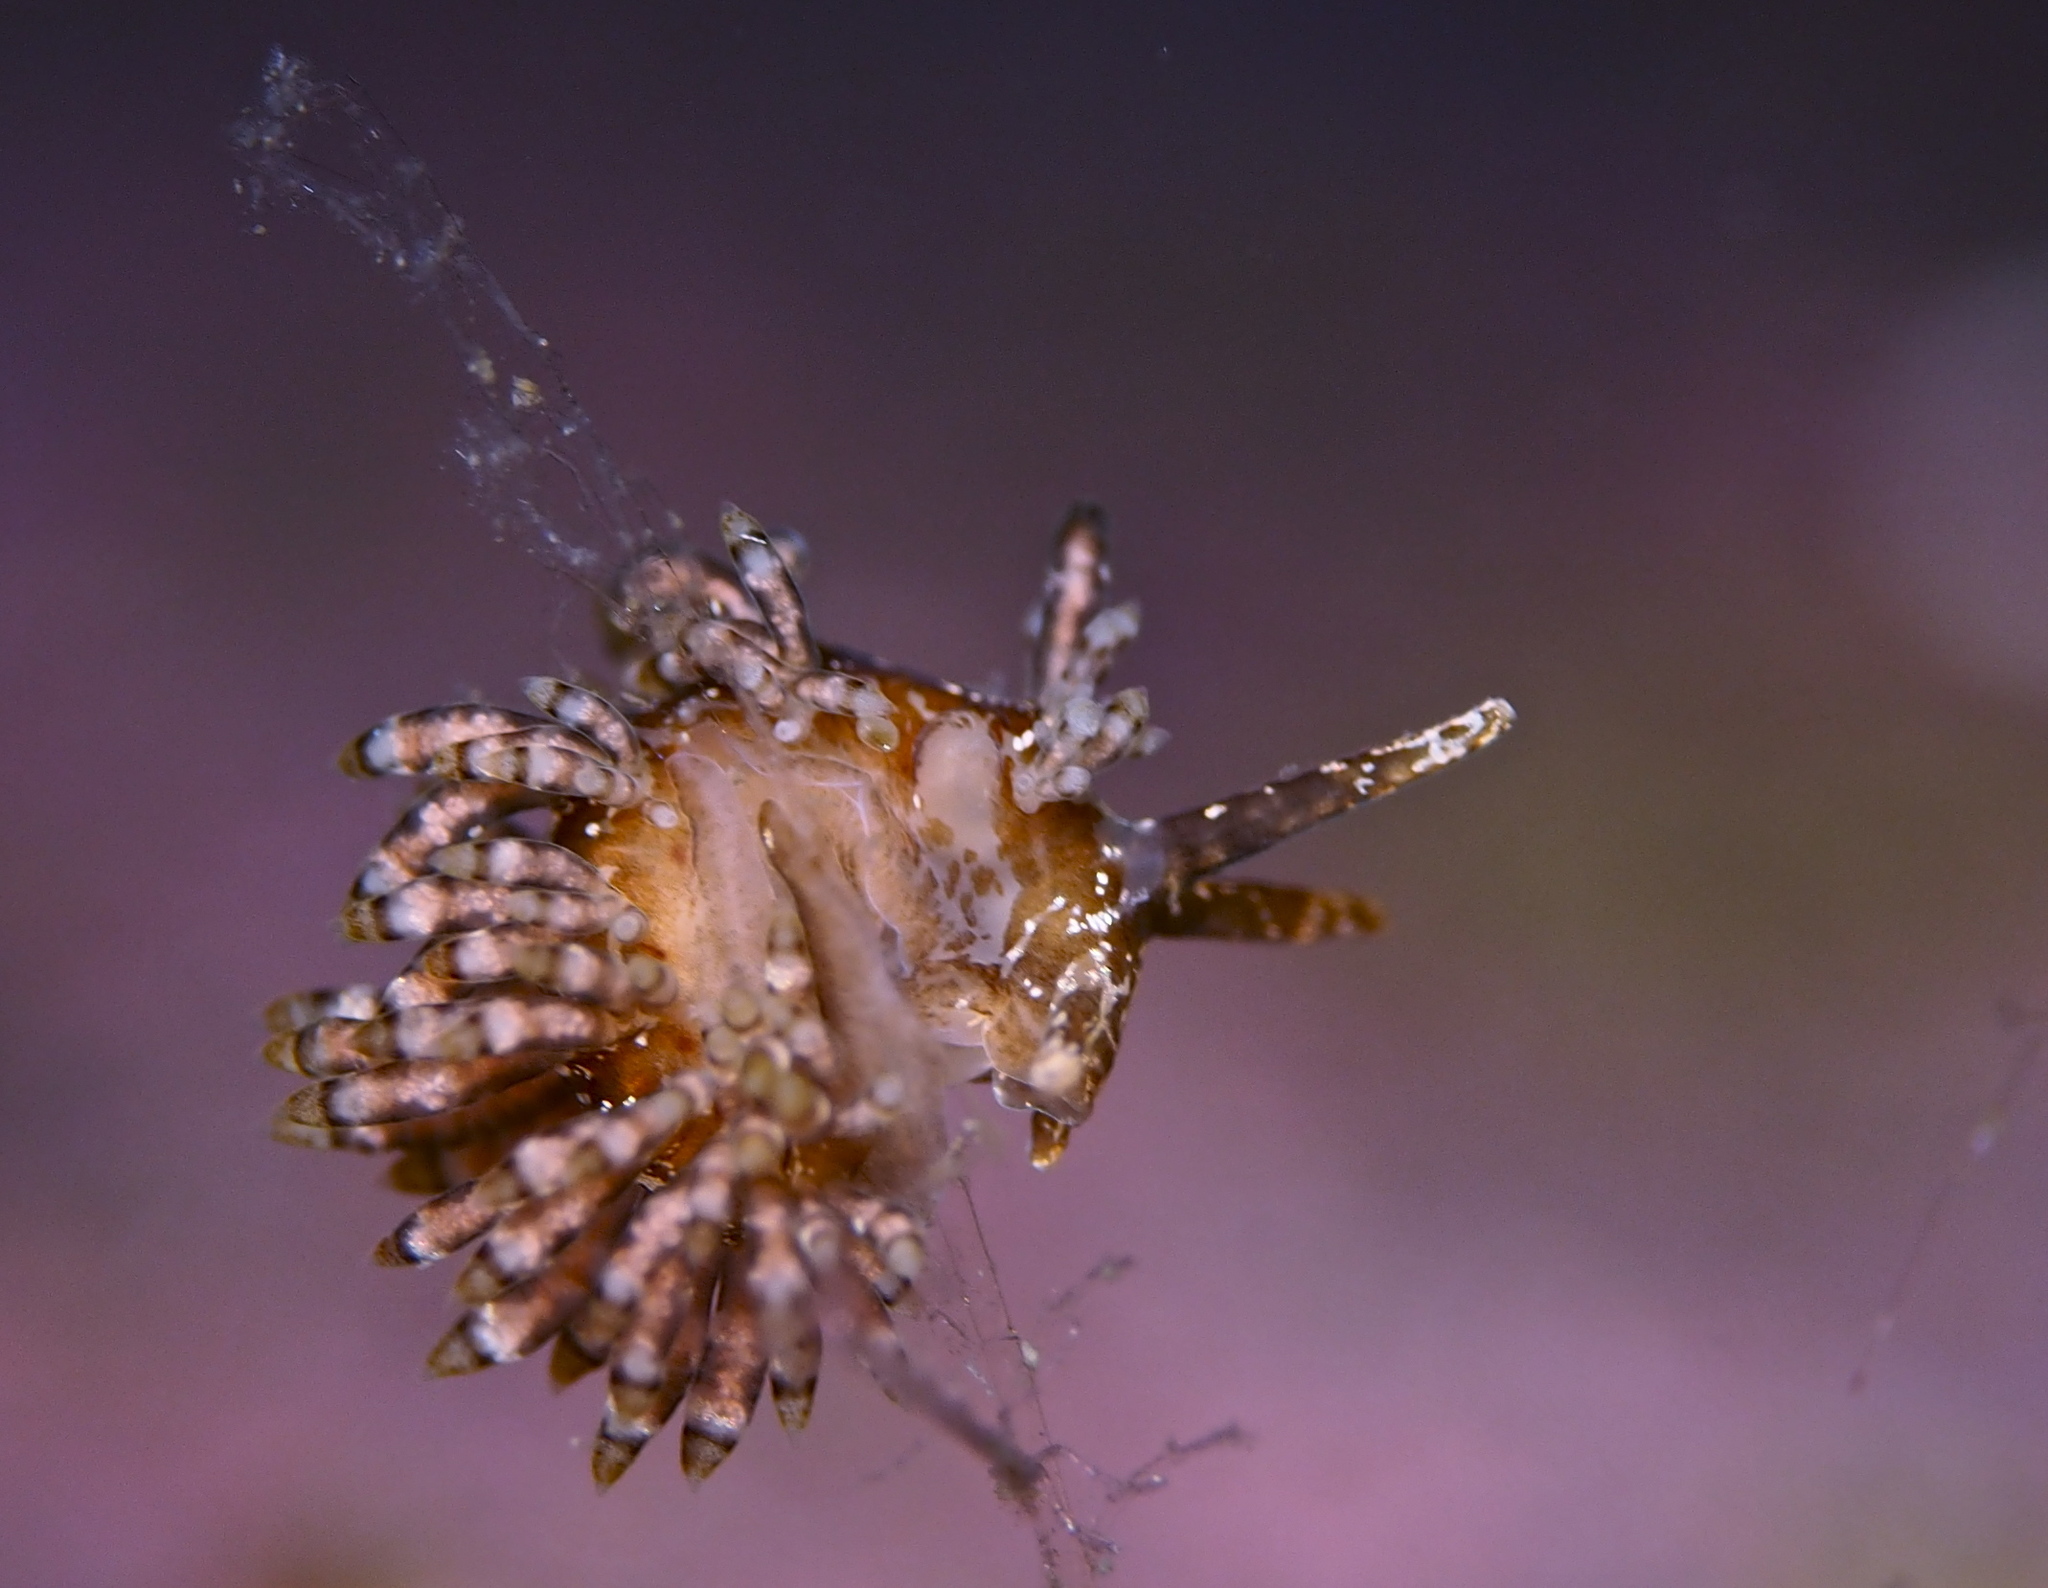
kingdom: Animalia
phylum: Mollusca
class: Gastropoda
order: Nudibranchia
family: Eubranchidae
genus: Eubranchus
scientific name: Eubranchus vittatus
